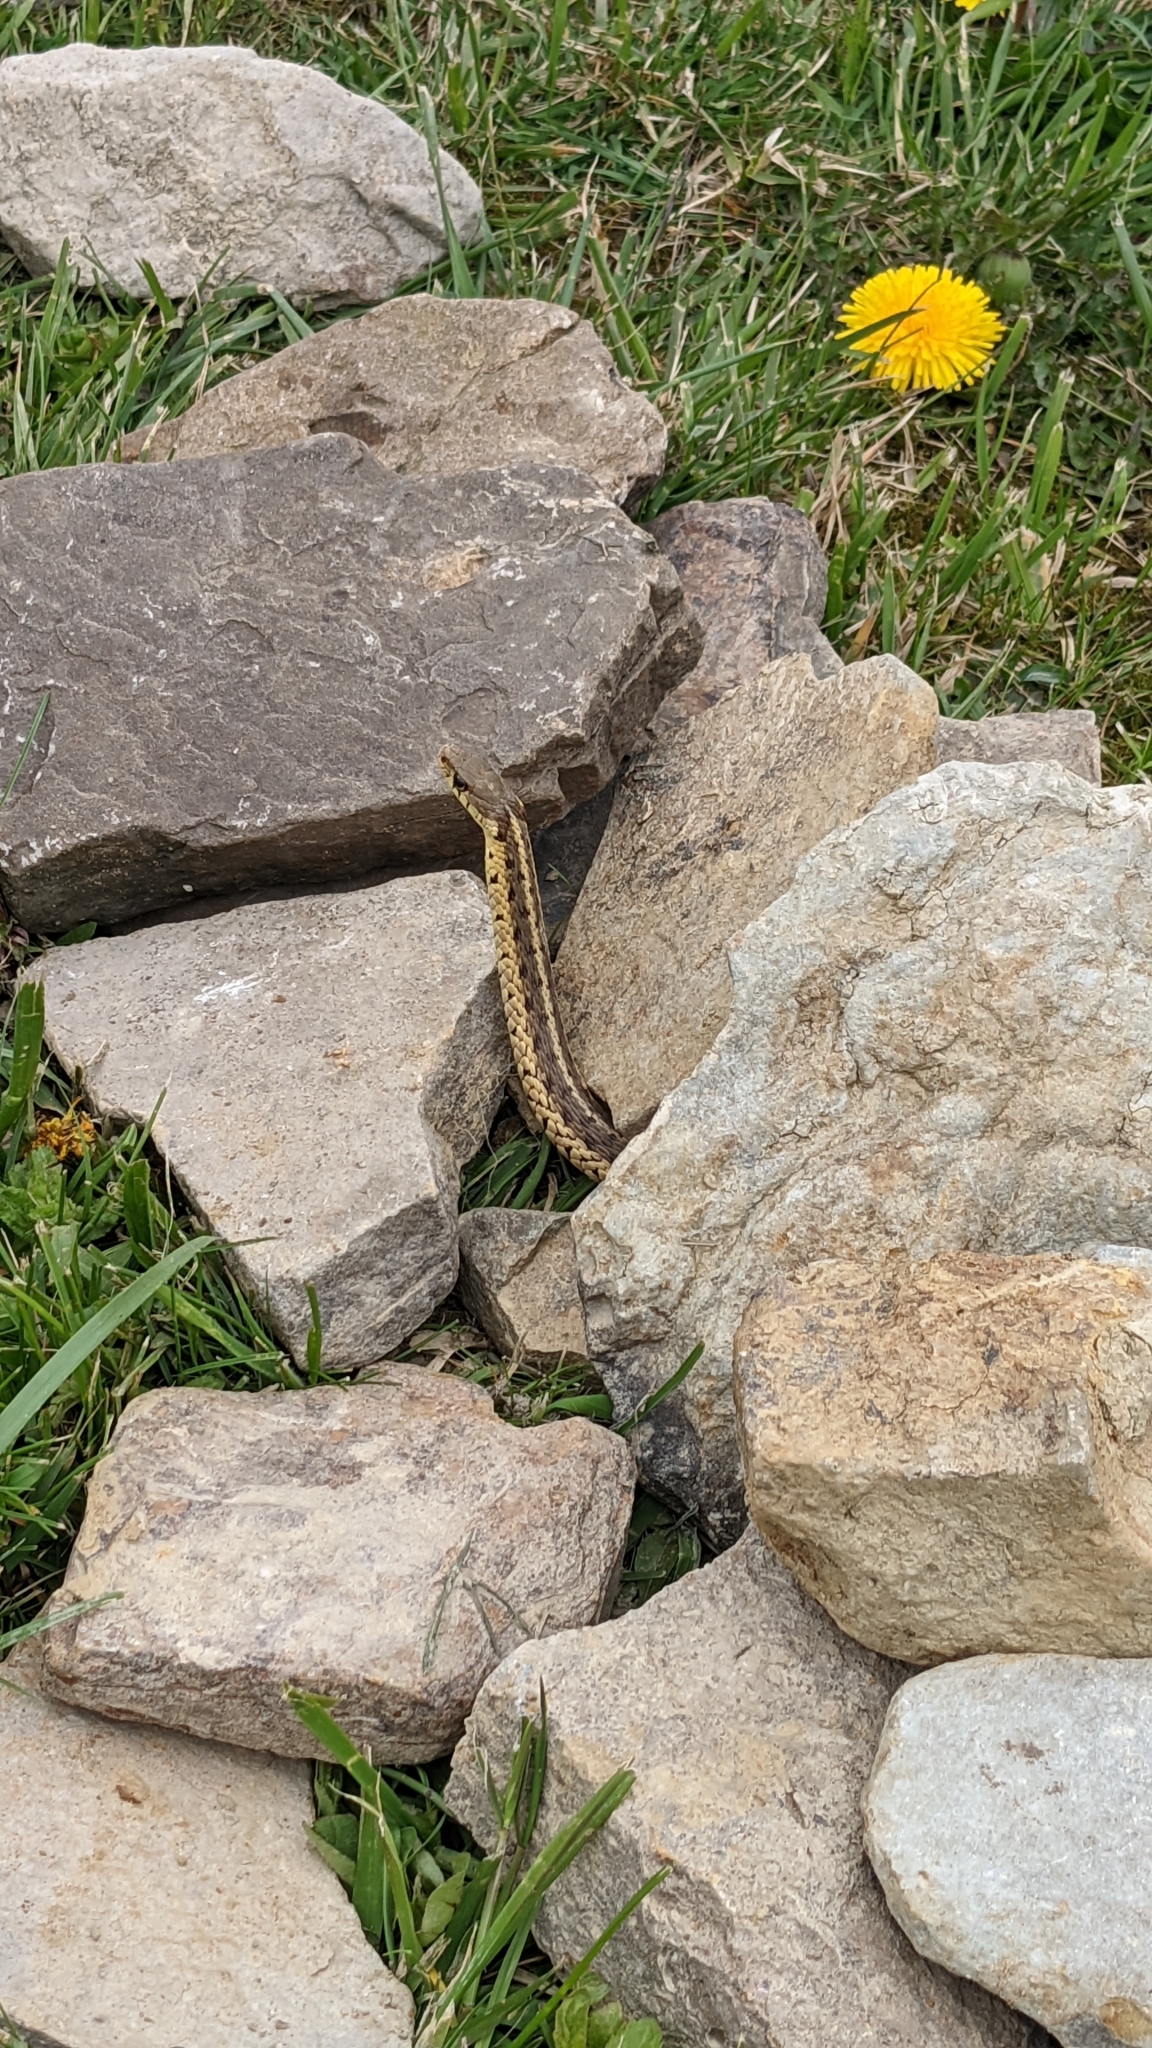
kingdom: Animalia
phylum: Chordata
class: Squamata
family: Colubridae
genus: Thamnophis
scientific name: Thamnophis sirtalis
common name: Common garter snake
